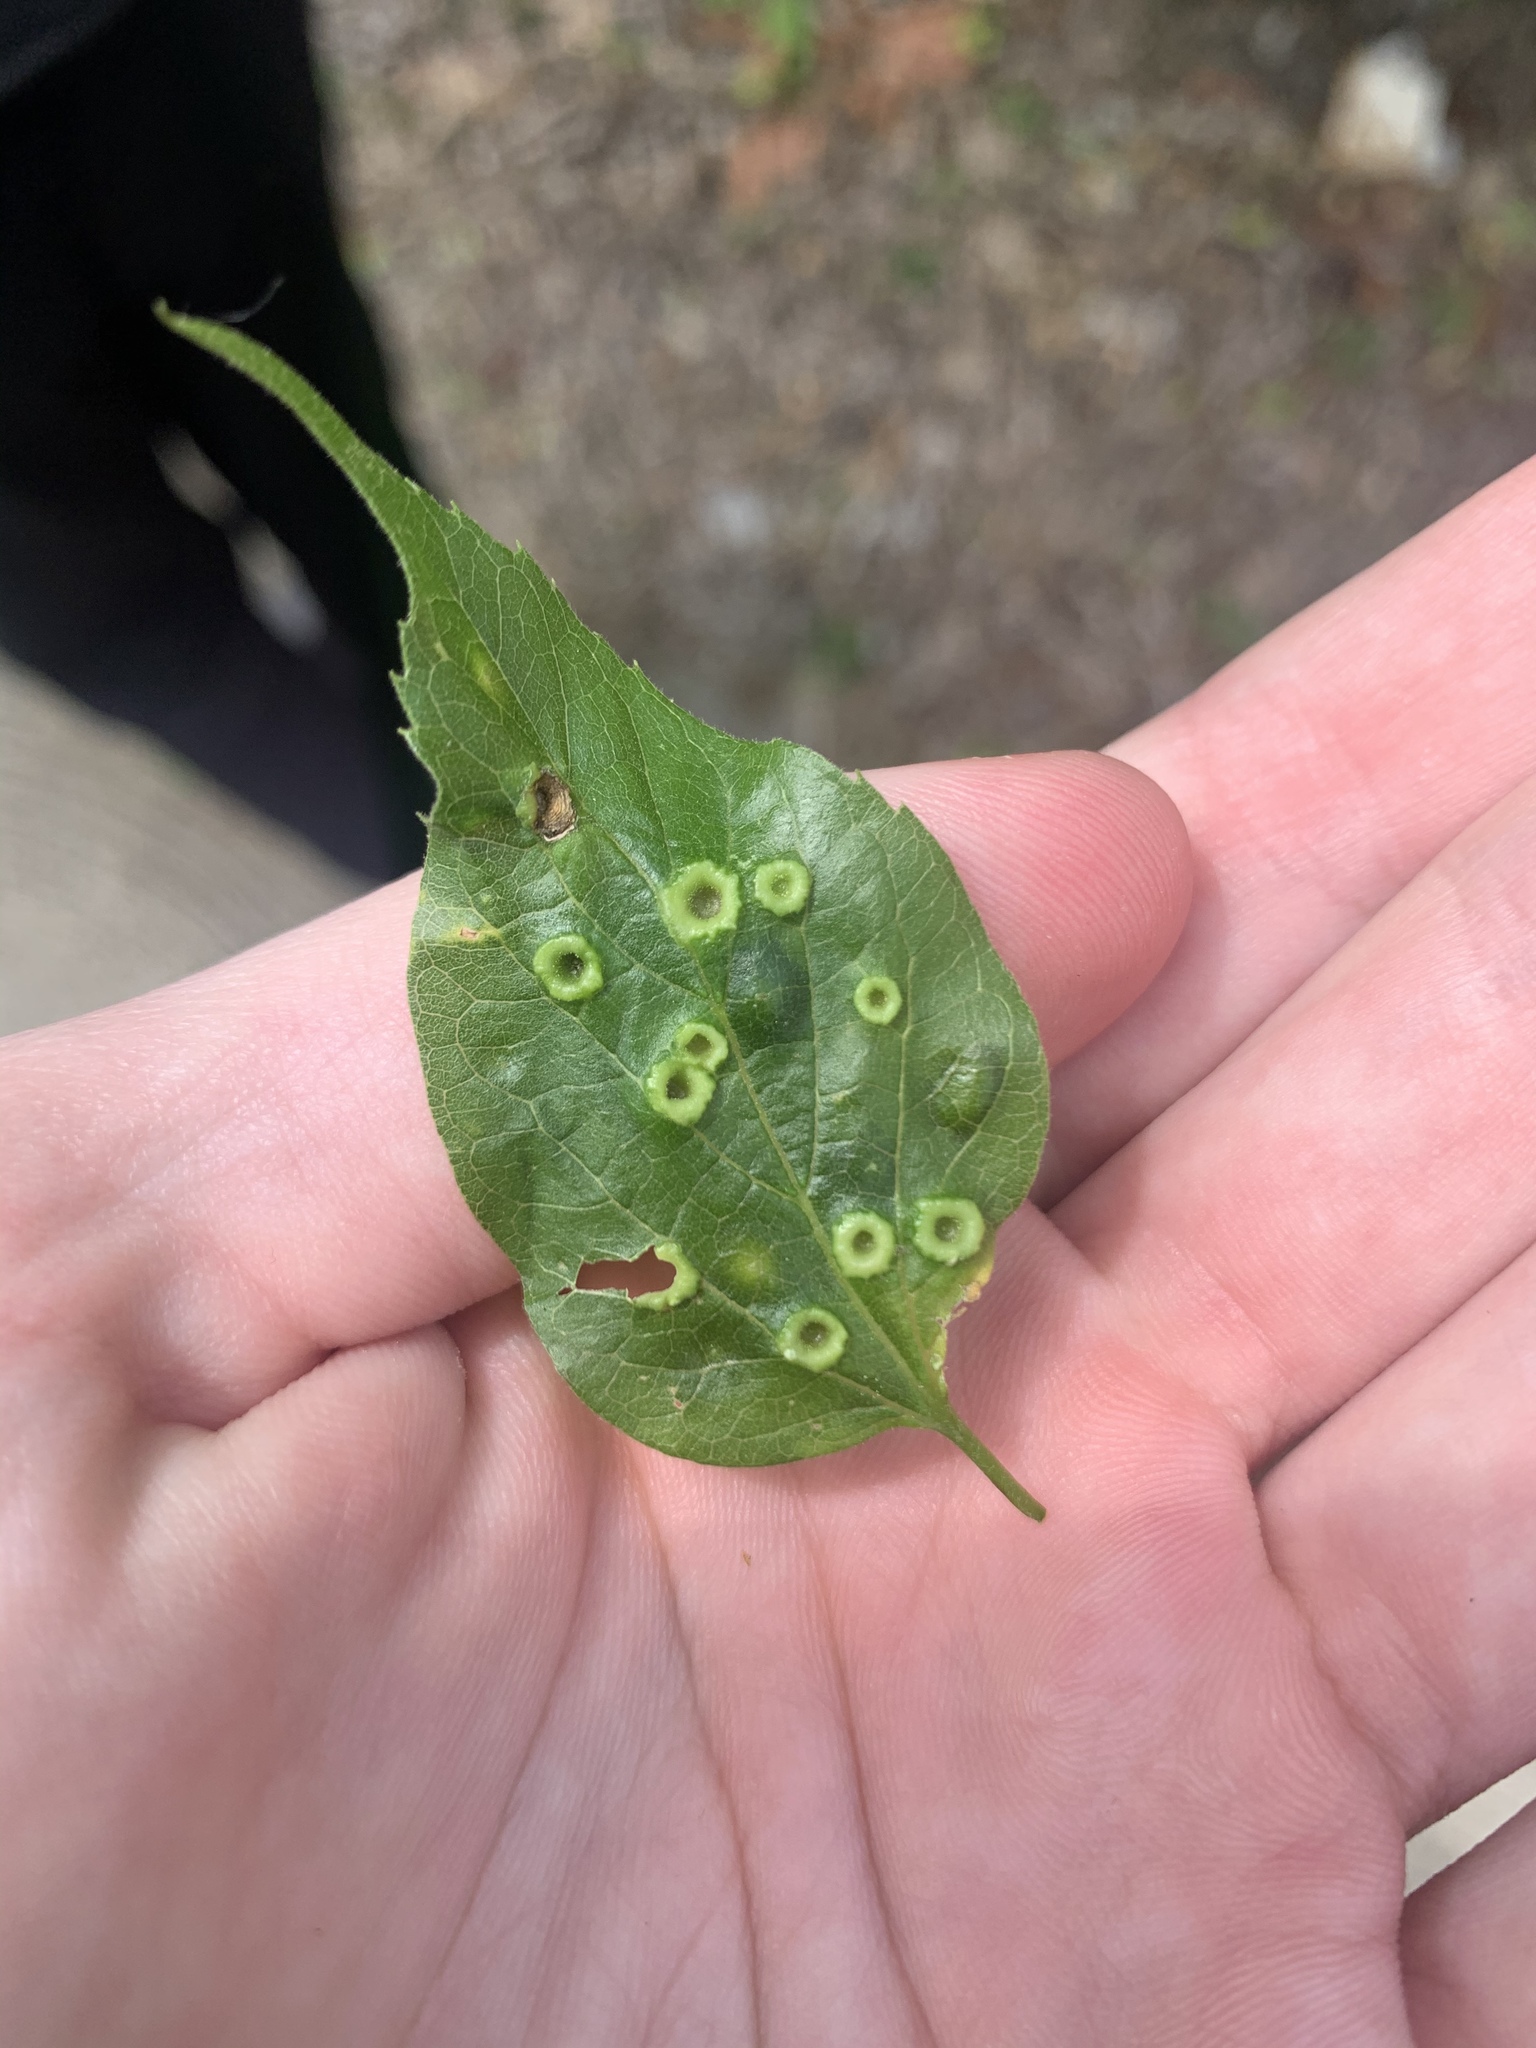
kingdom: Animalia
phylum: Arthropoda
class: Insecta
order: Hemiptera
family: Aphalaridae
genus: Pachypsylla
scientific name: Pachypsylla celtidismamma
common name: Hackberry nipplegall psyllid
